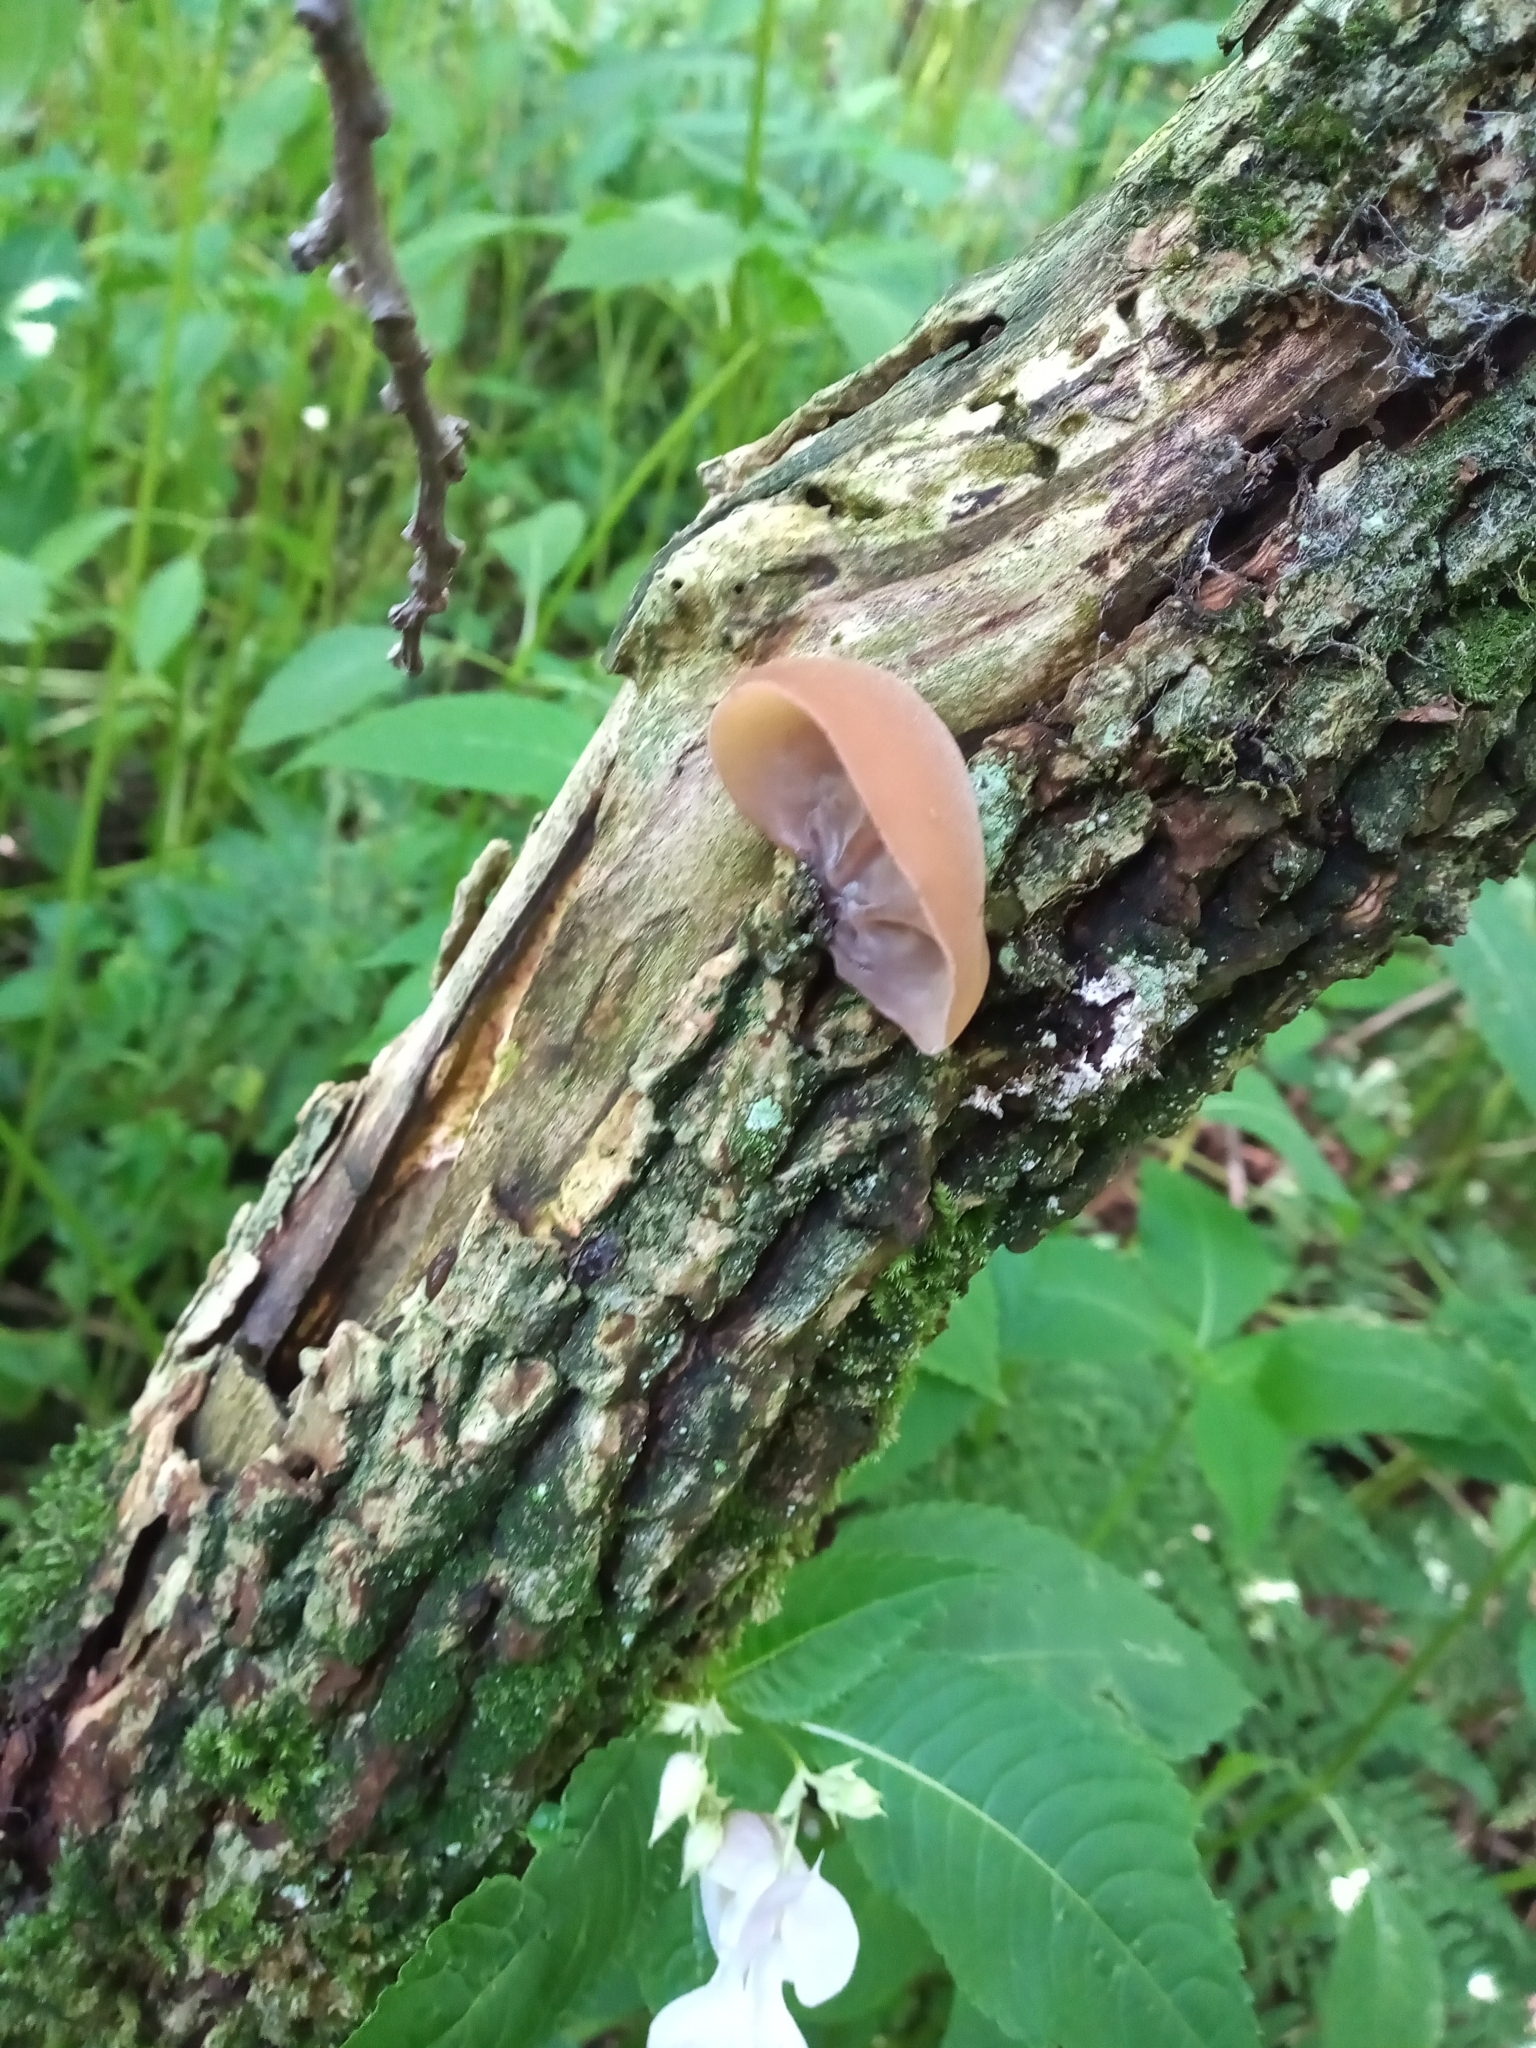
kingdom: Fungi
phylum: Basidiomycota
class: Agaricomycetes
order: Auriculariales
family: Auriculariaceae
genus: Auricularia
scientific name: Auricularia auricula-judae
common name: Jelly ear
